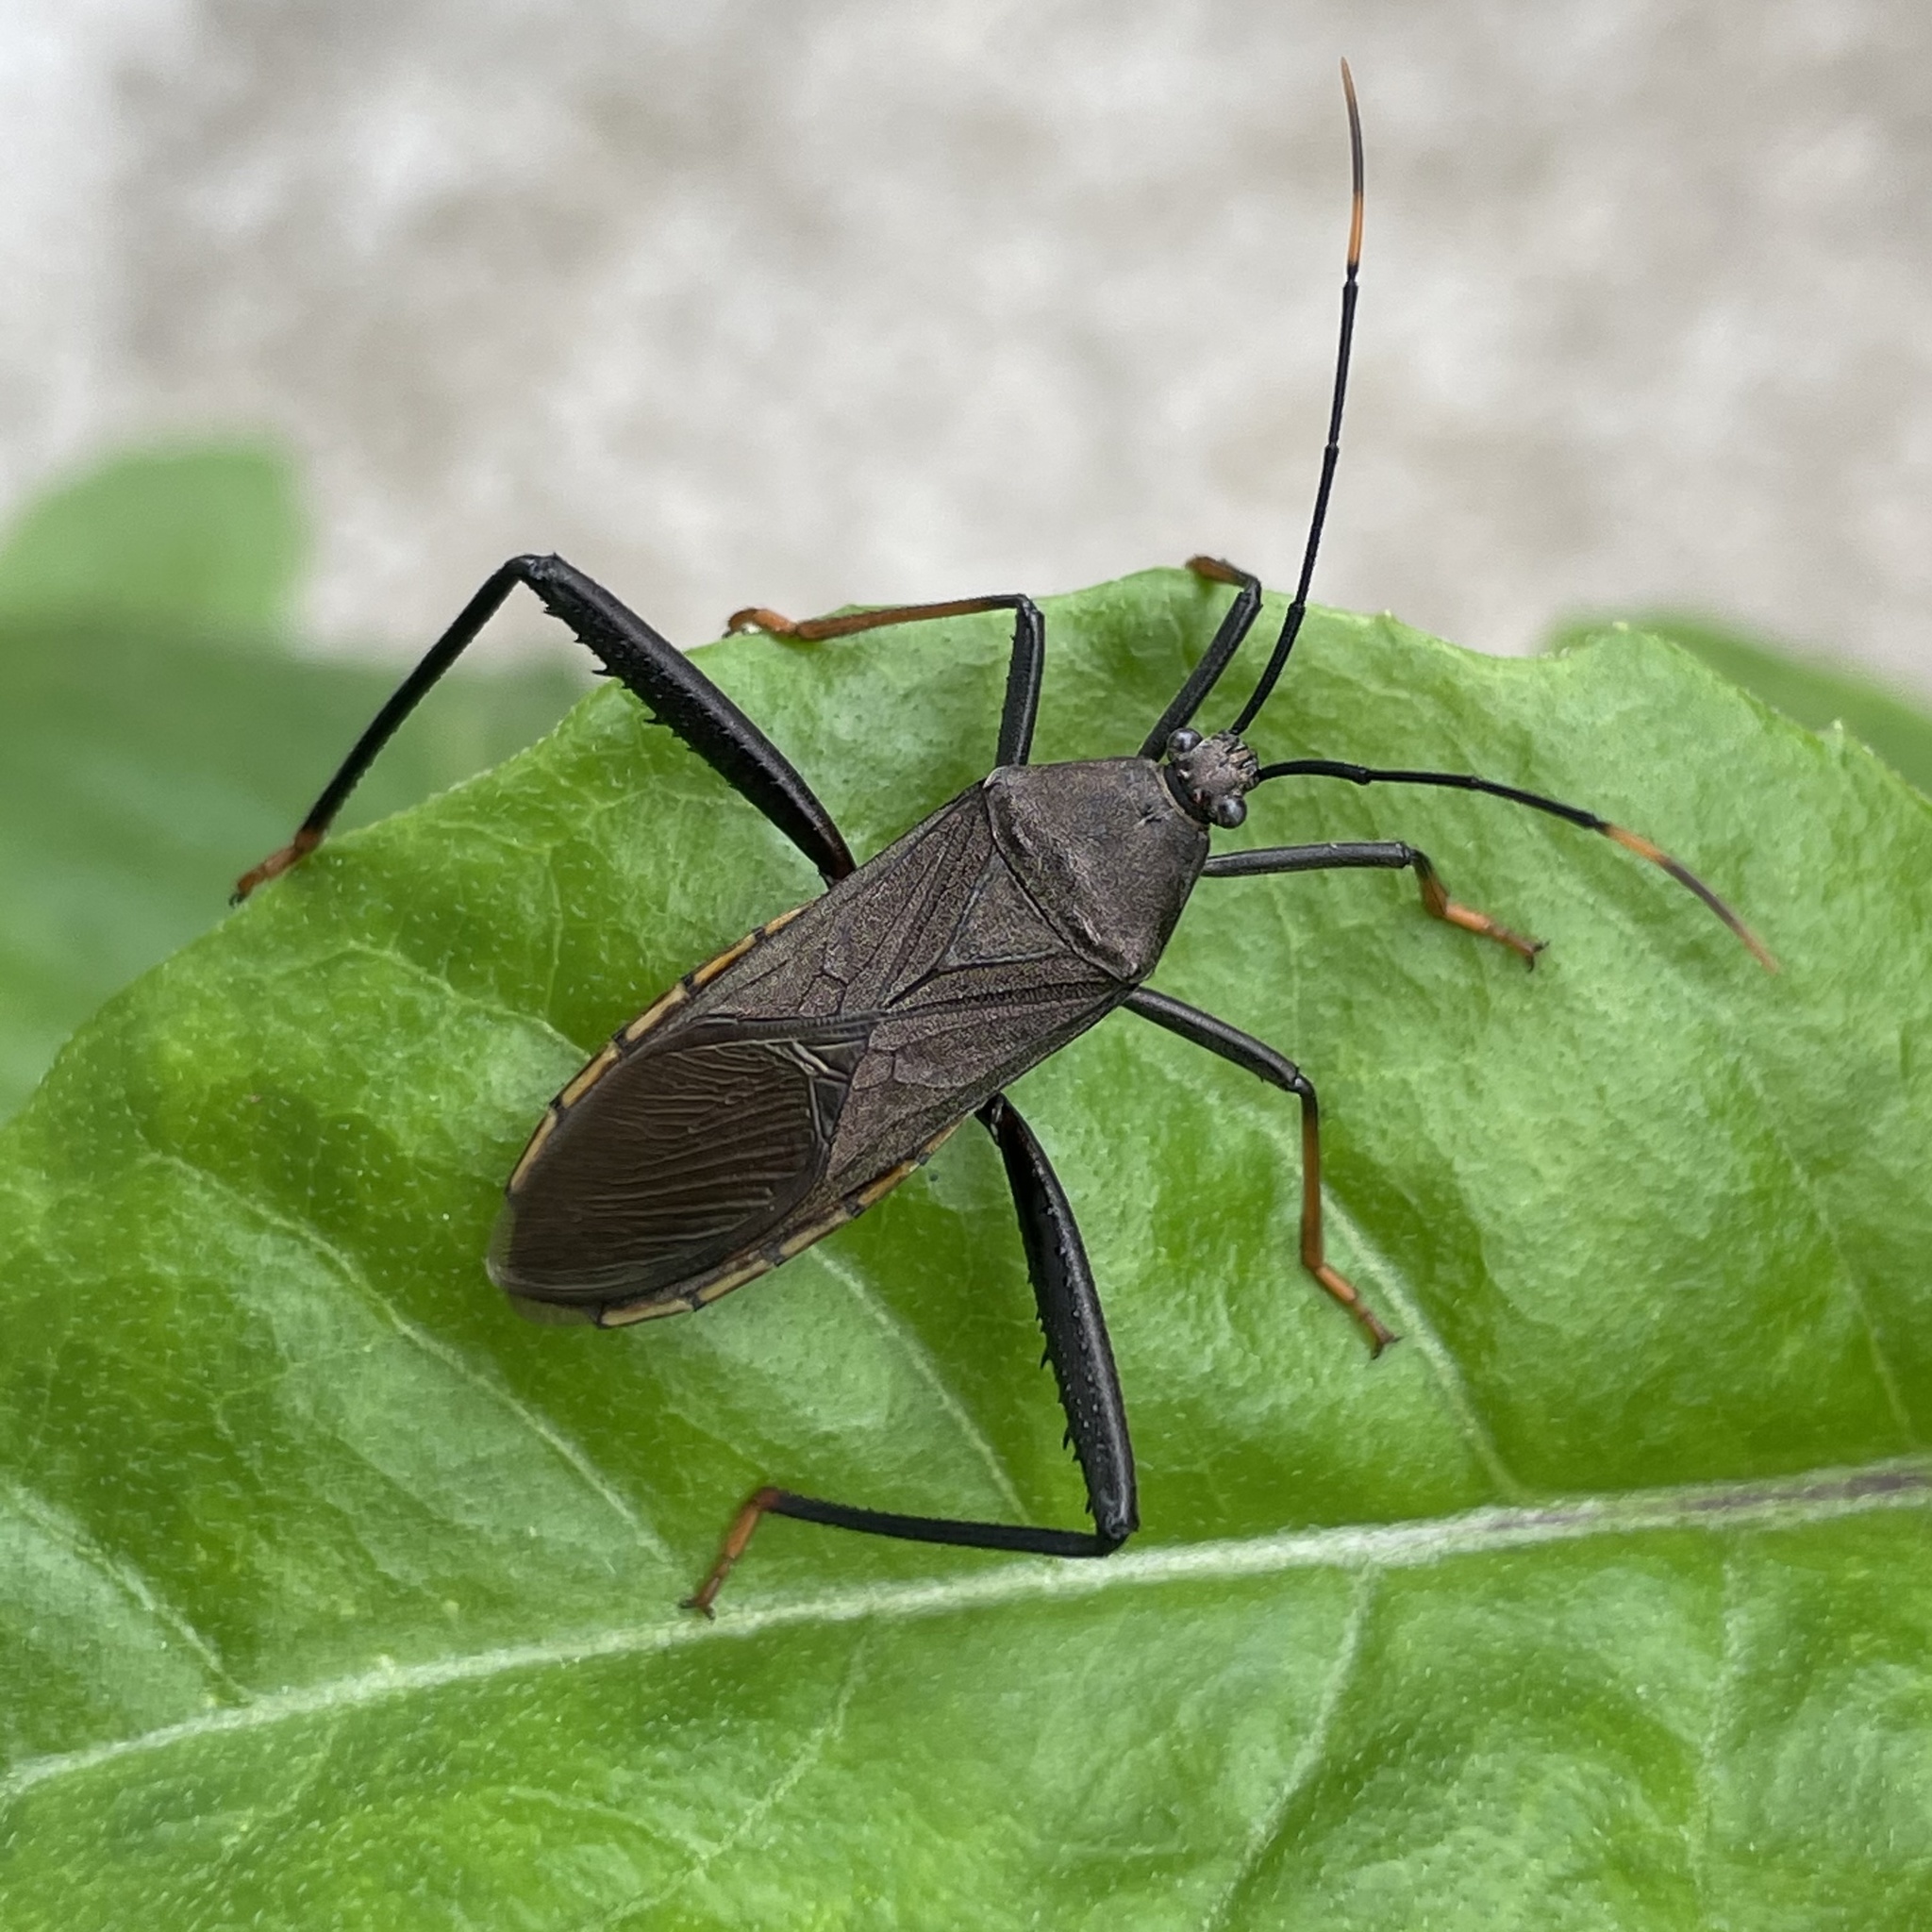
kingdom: Animalia
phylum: Arthropoda
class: Insecta
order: Hemiptera
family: Coreidae
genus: Notobitus
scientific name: Notobitus meleagris
